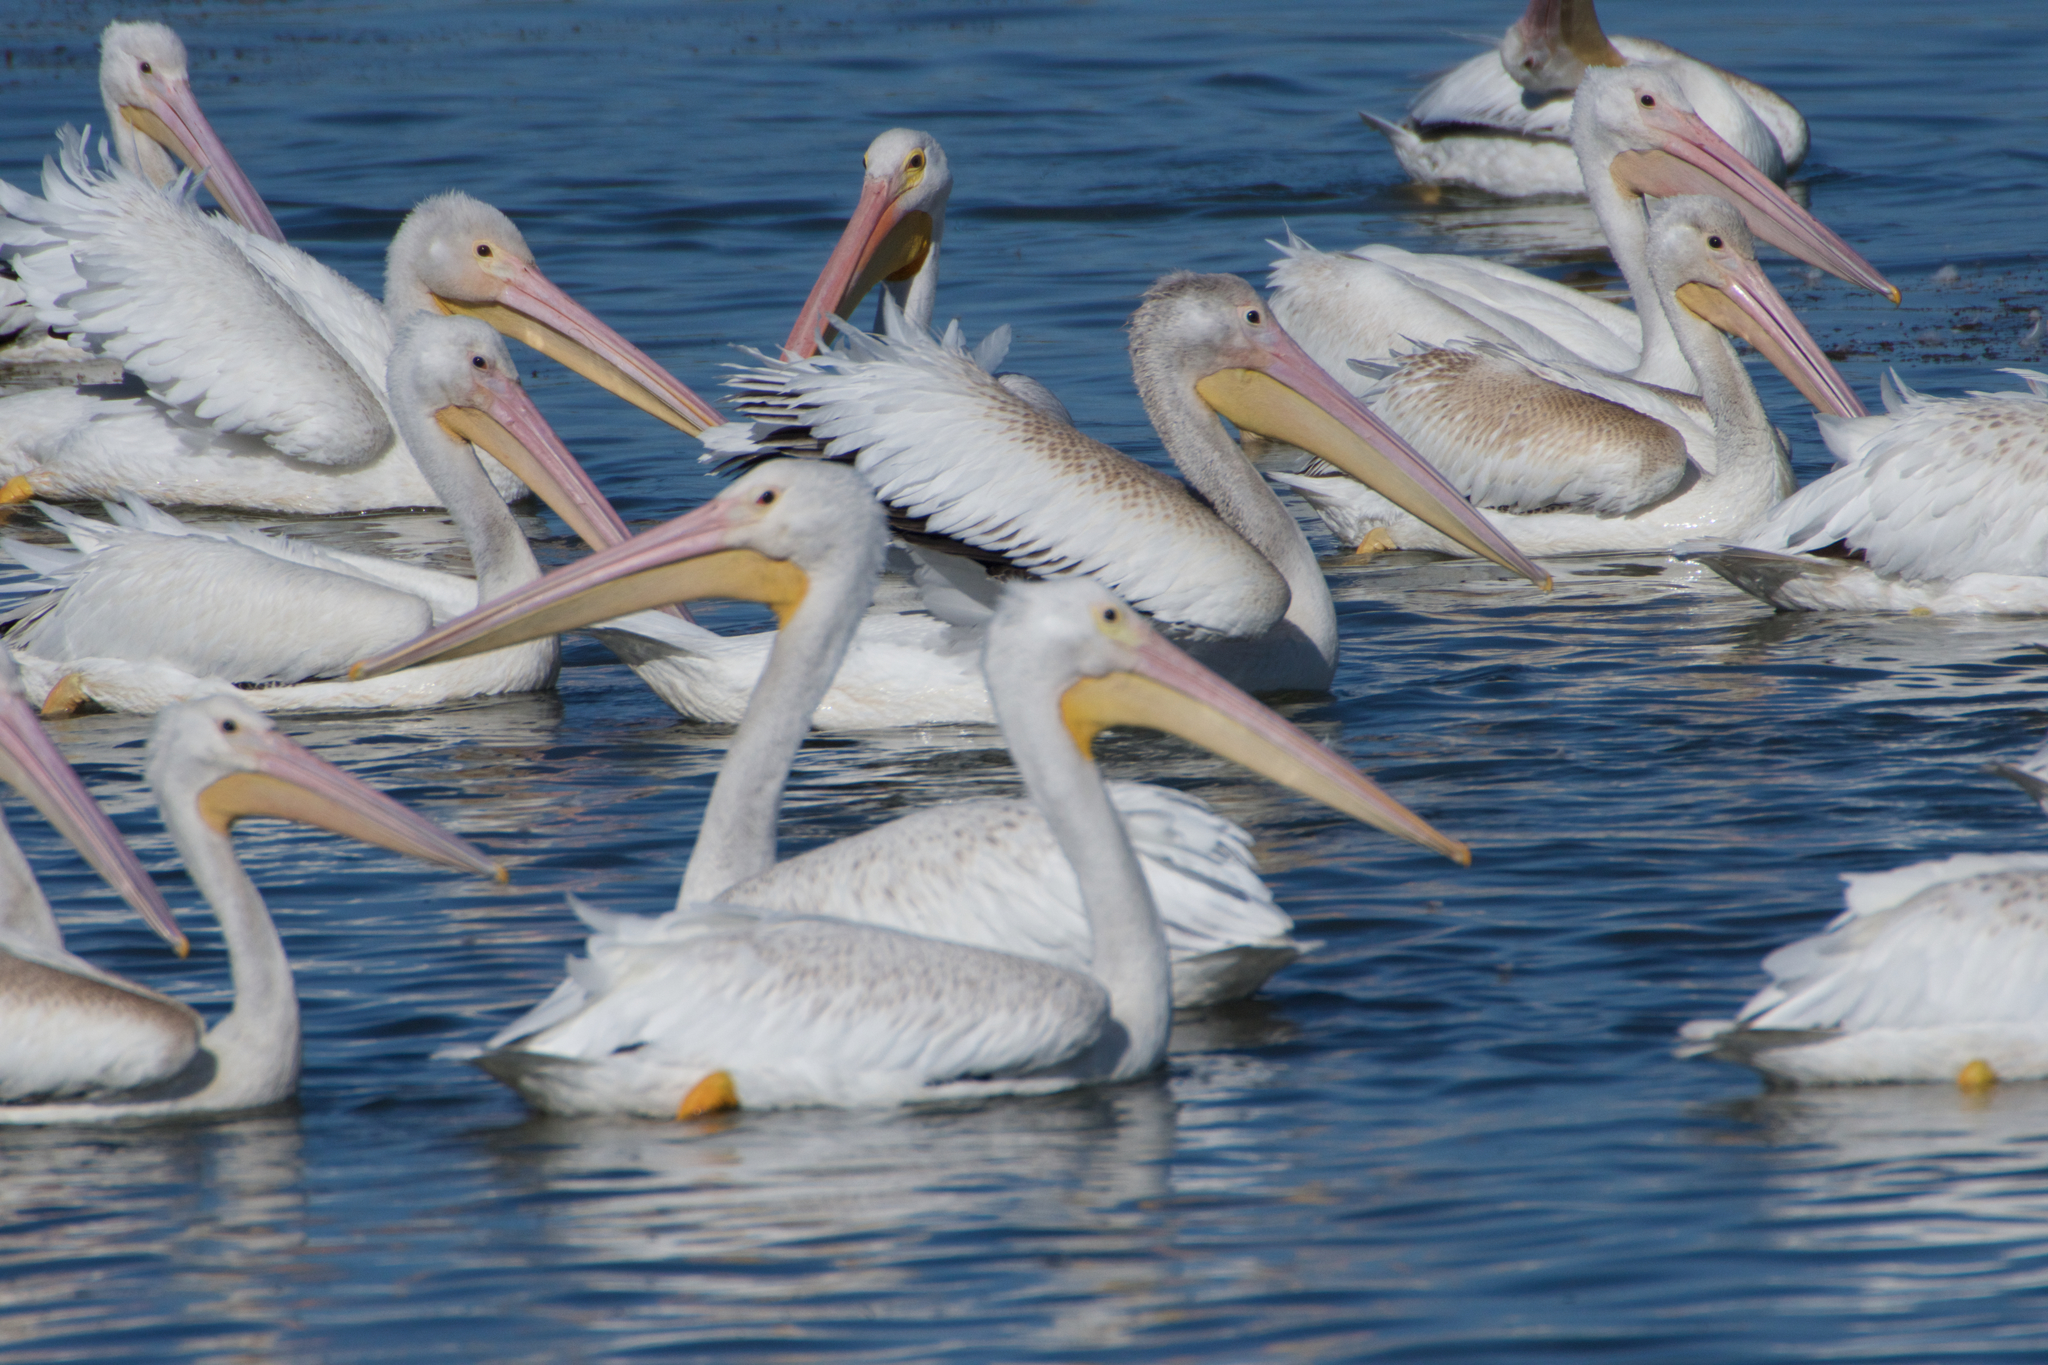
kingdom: Animalia
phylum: Chordata
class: Aves
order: Pelecaniformes
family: Pelecanidae
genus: Pelecanus
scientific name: Pelecanus erythrorhynchos
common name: American white pelican
